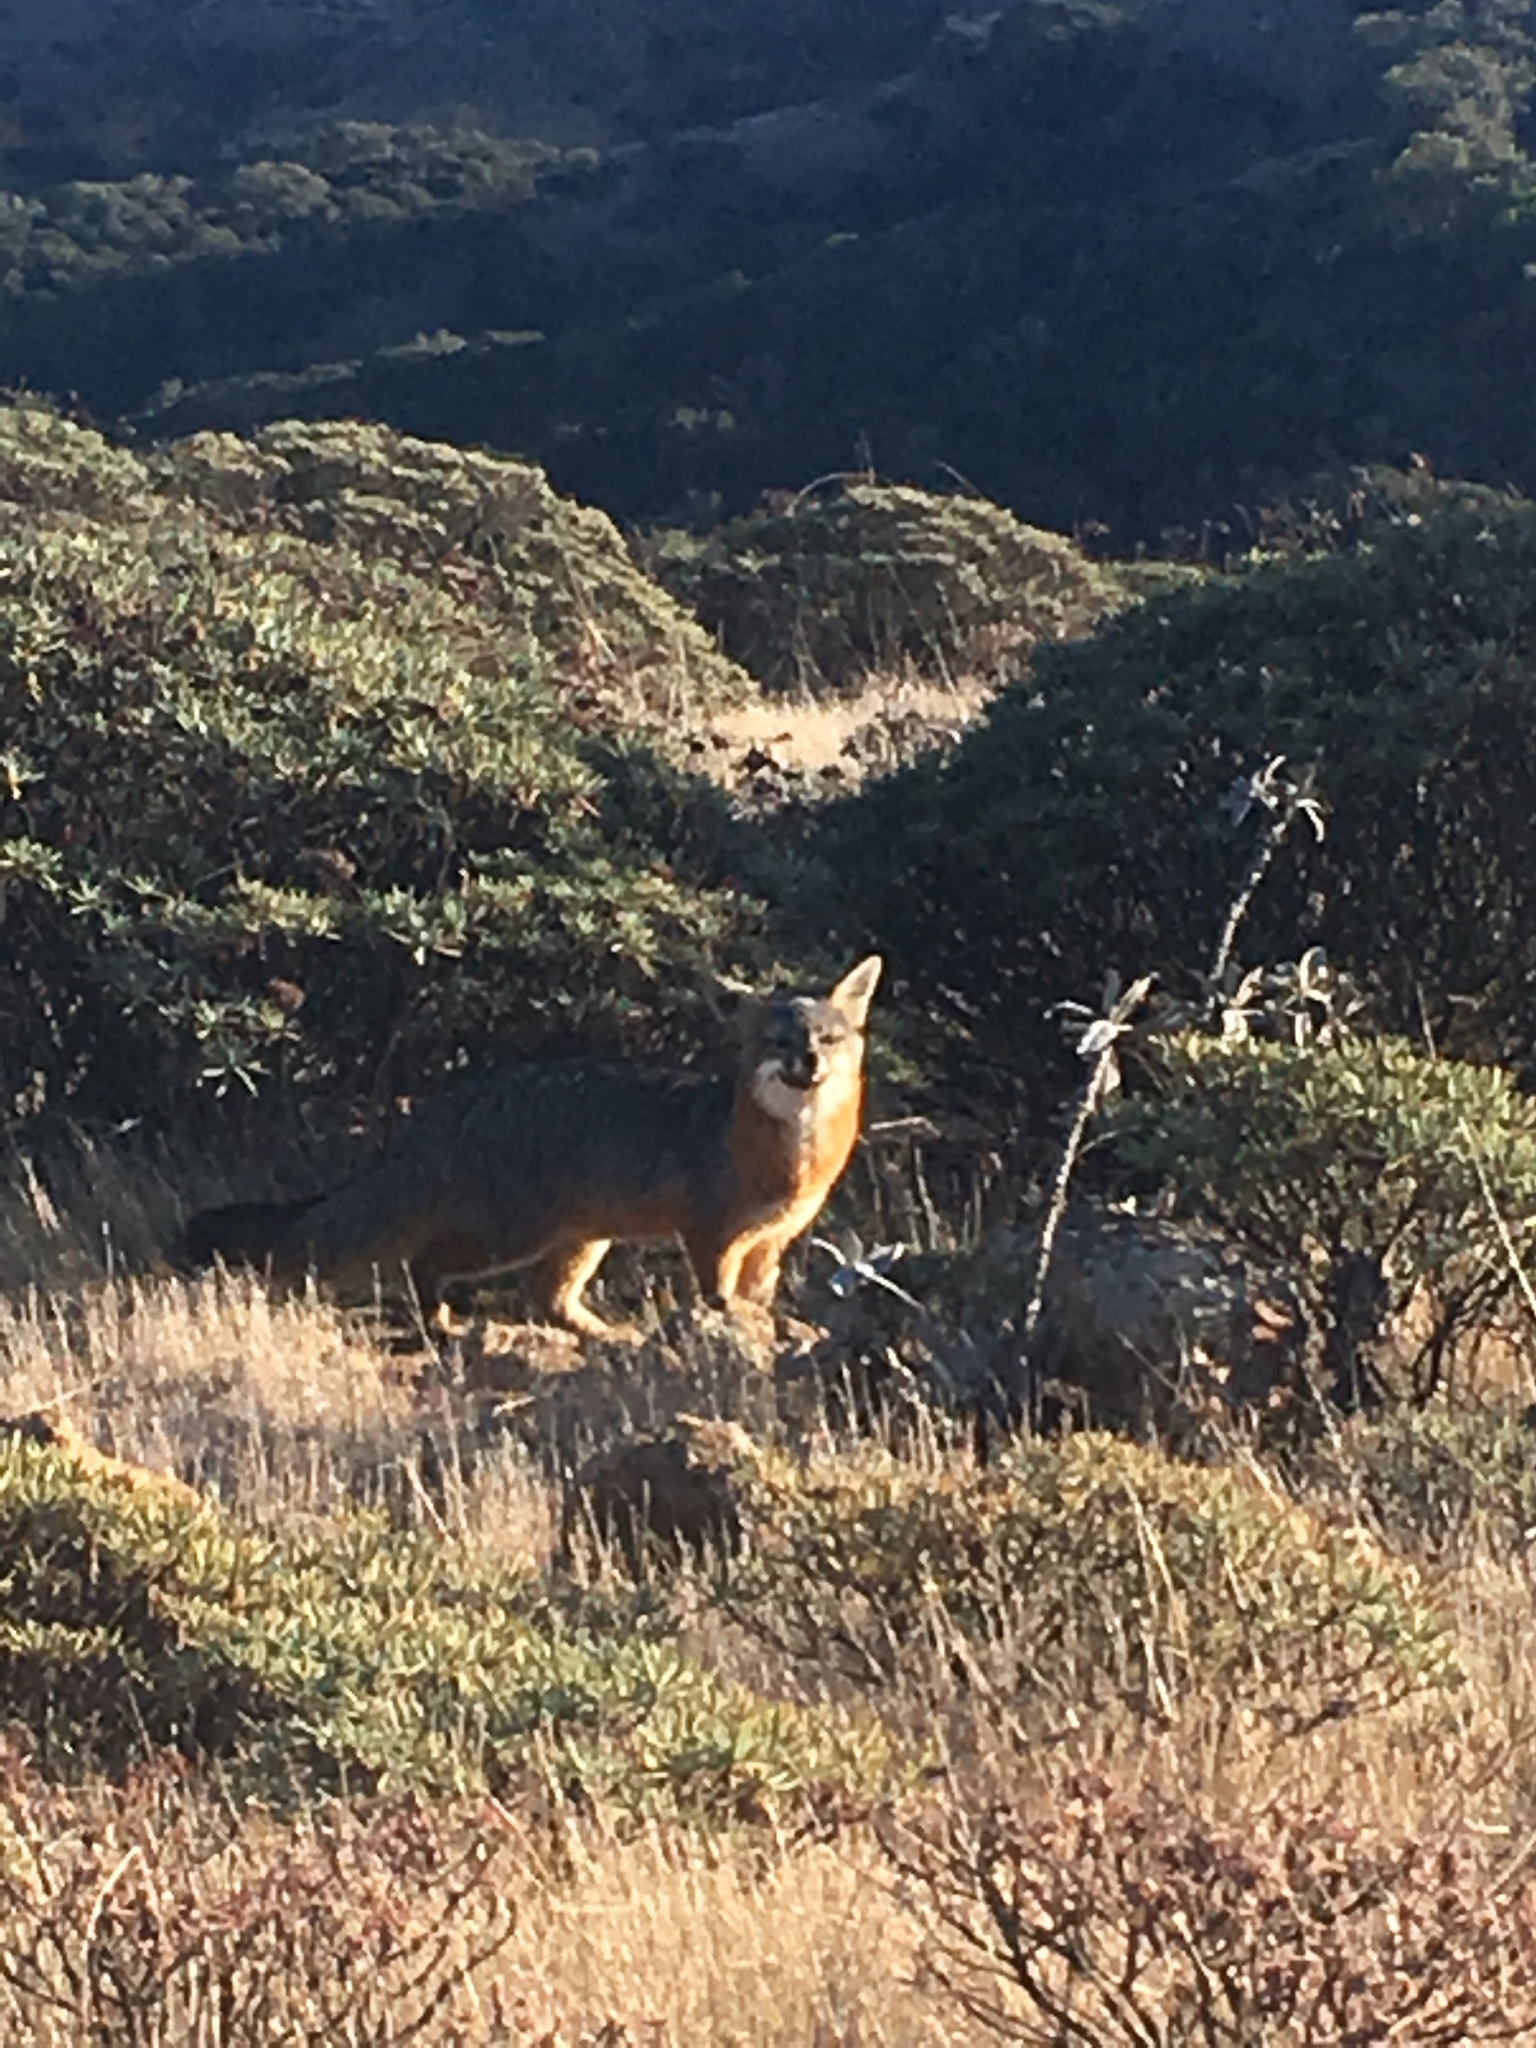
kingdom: Animalia
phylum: Chordata
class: Mammalia
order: Carnivora
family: Canidae
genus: Urocyon
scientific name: Urocyon littoralis
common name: Island gray fox
